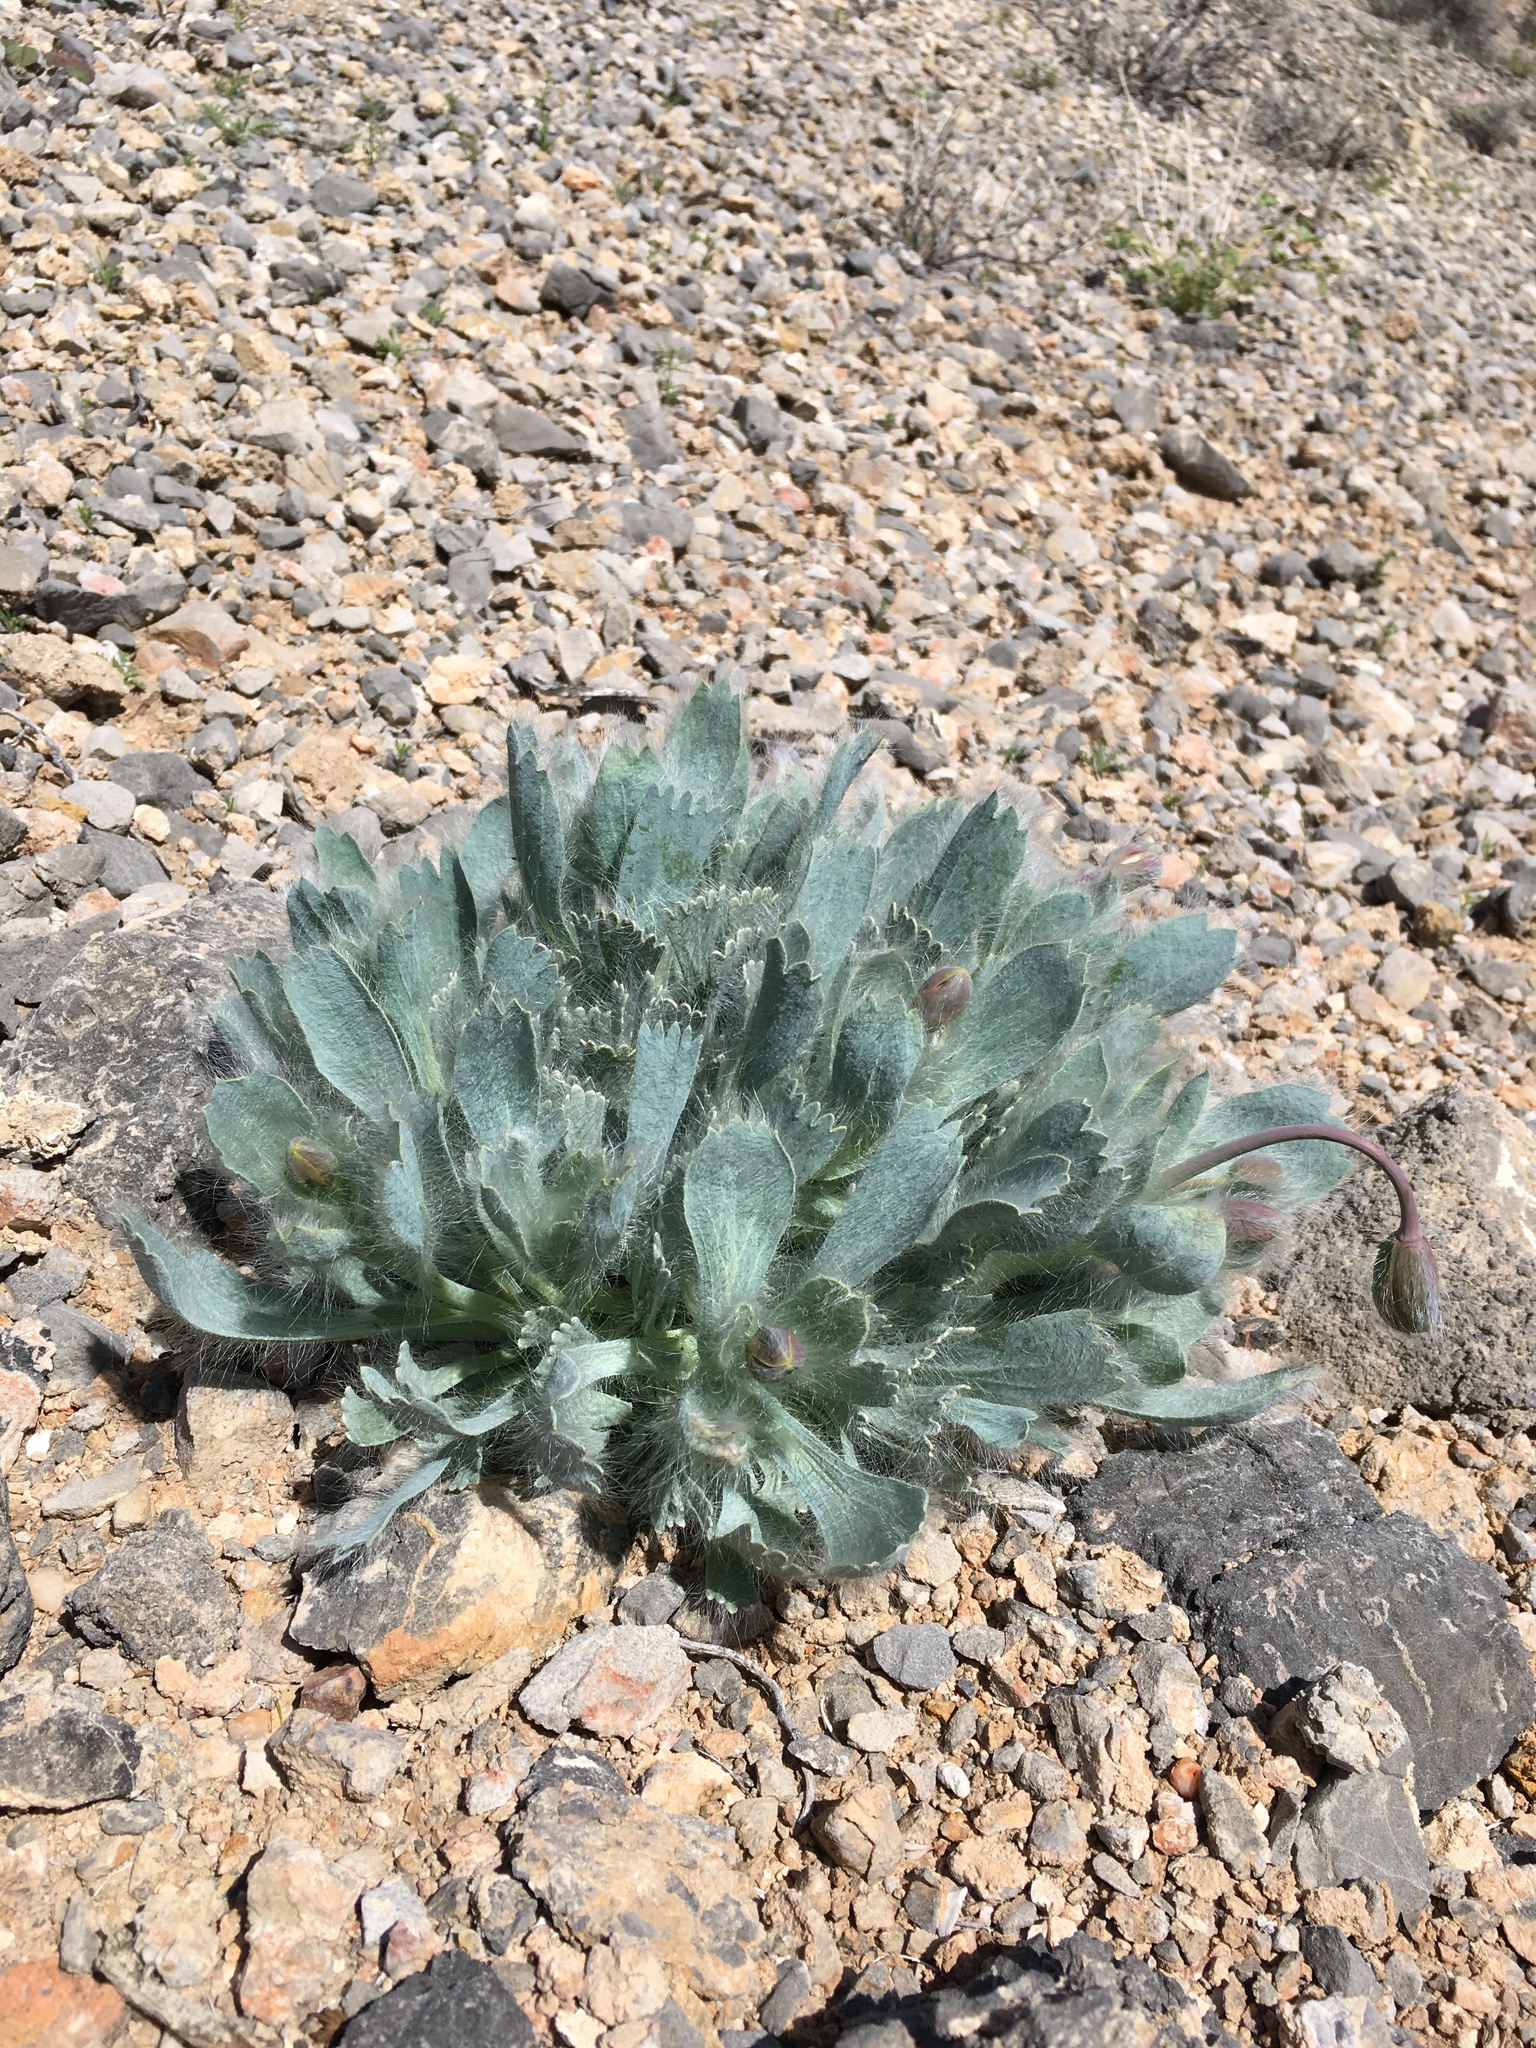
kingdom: Plantae
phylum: Tracheophyta
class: Magnoliopsida
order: Ranunculales
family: Papaveraceae
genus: Arctomecon
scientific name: Arctomecon merriamii
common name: White bear-poppy
